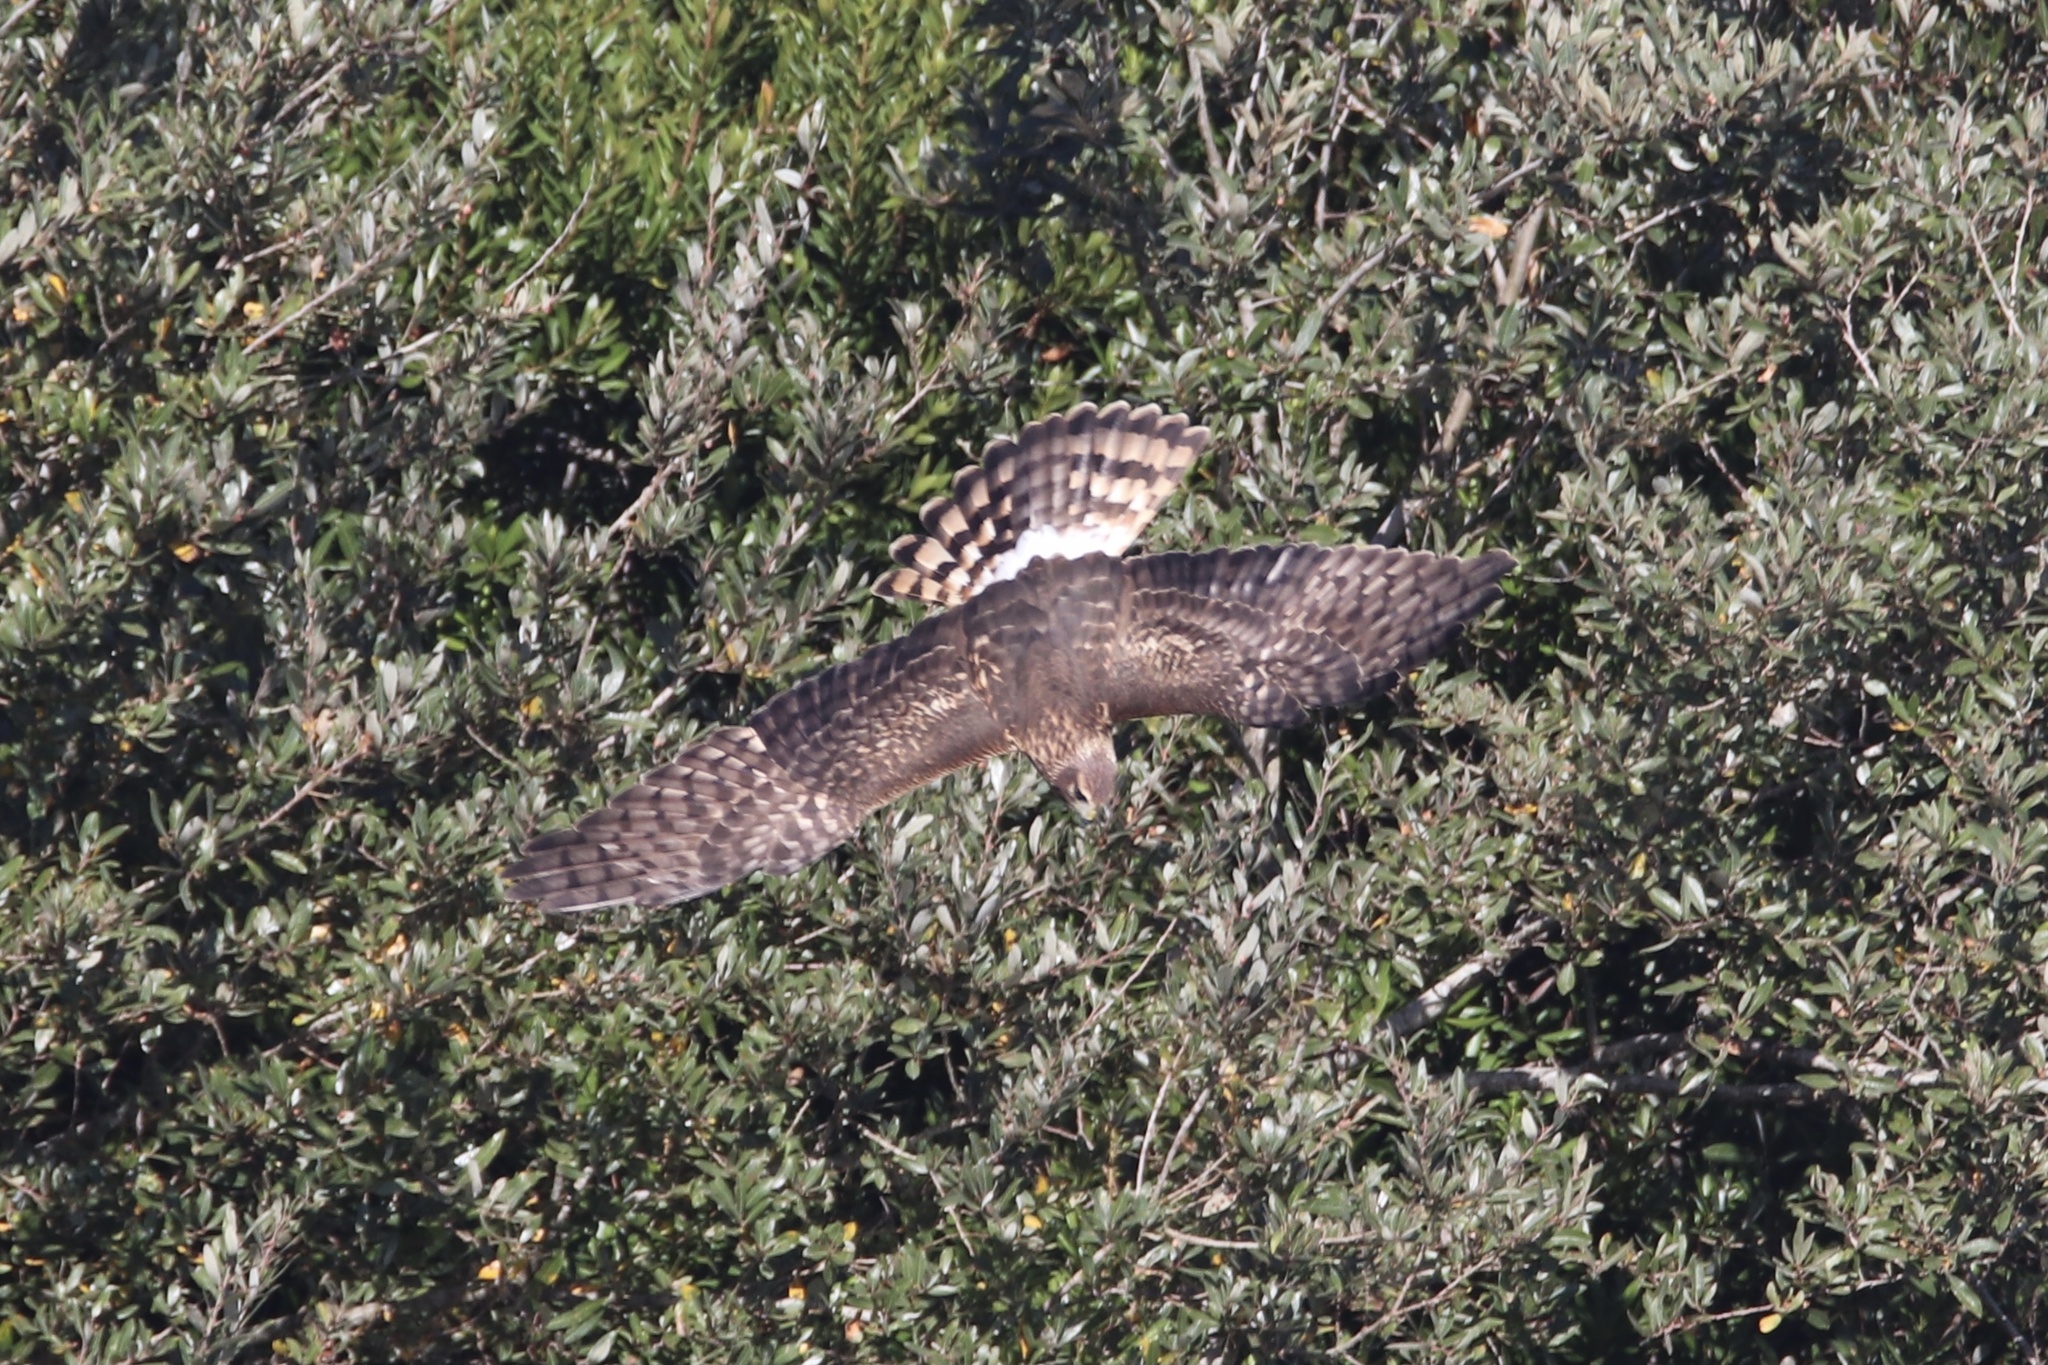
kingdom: Animalia
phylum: Chordata
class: Aves
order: Accipitriformes
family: Accipitridae
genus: Circus
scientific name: Circus cyaneus
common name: Hen harrier
